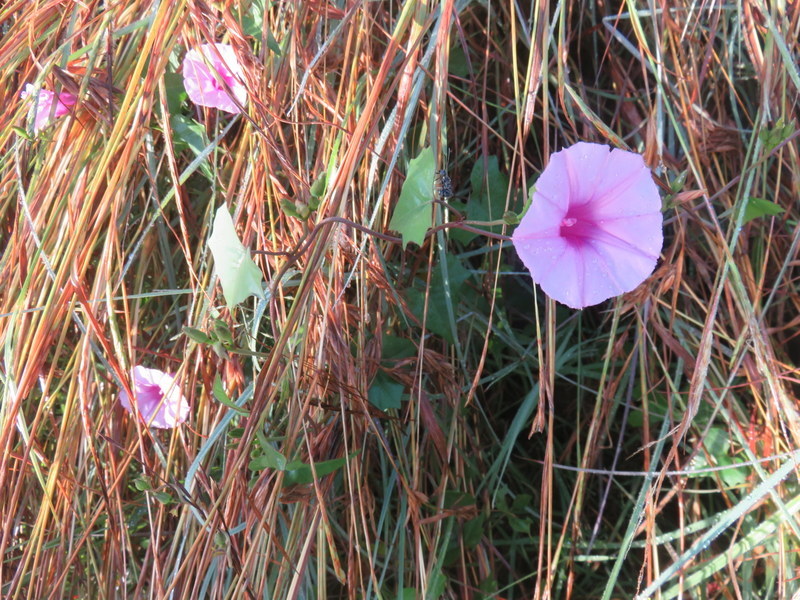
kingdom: Plantae
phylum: Tracheophyta
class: Magnoliopsida
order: Solanales
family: Convolvulaceae
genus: Ipomoea
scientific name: Ipomoea papilio
